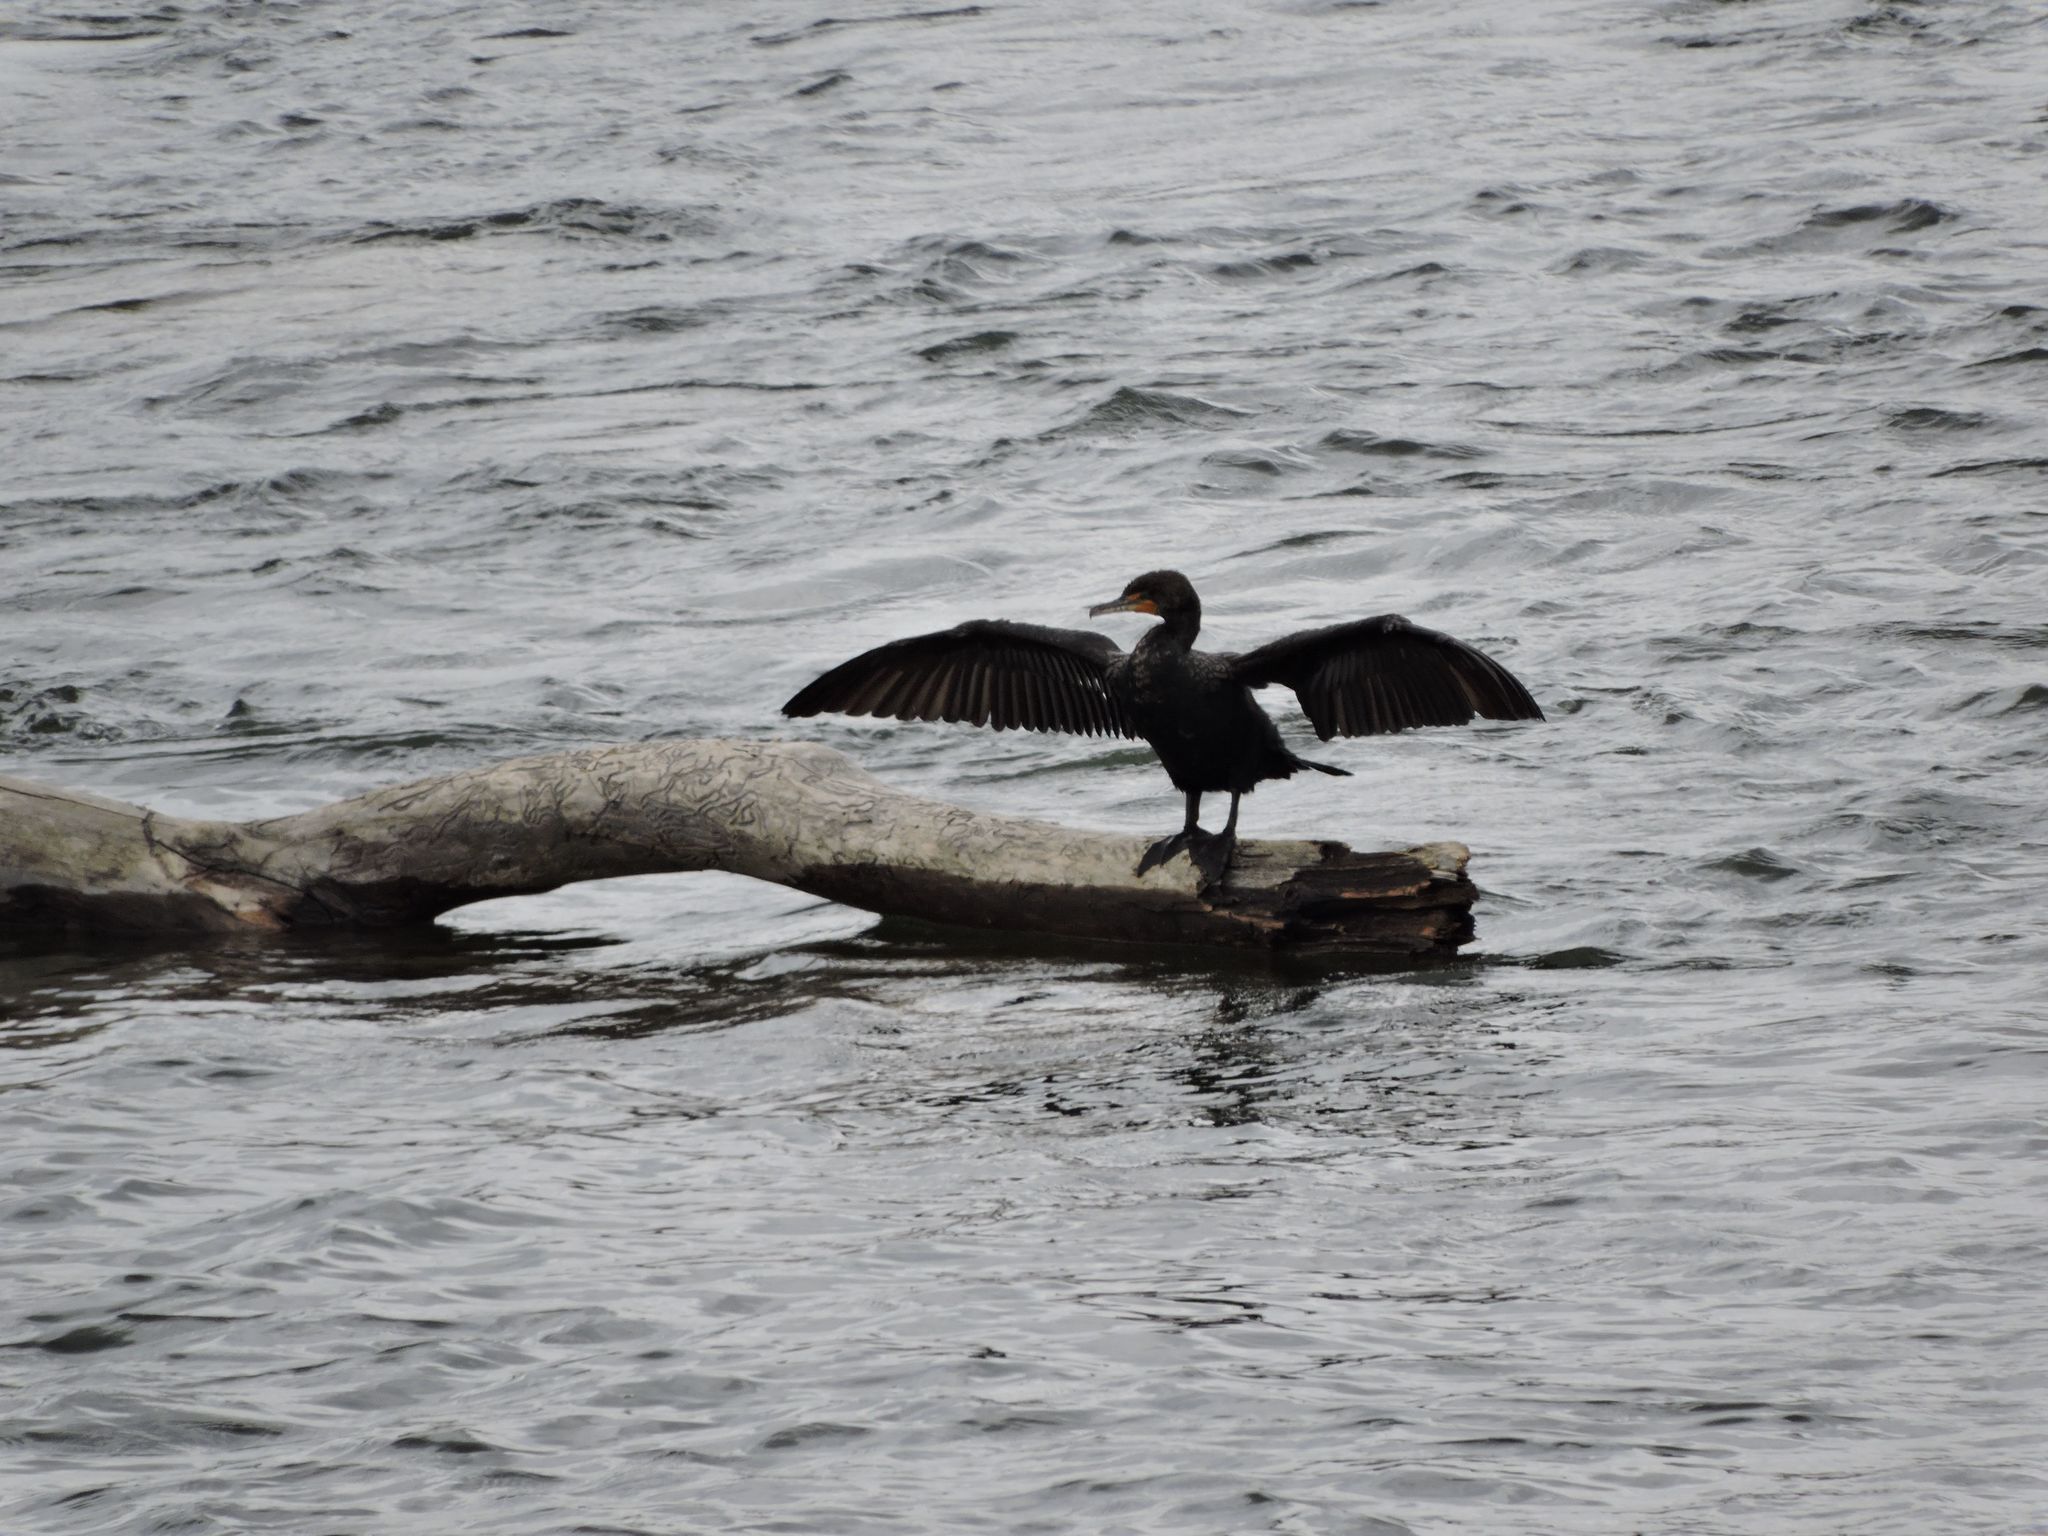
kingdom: Animalia
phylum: Chordata
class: Aves
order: Suliformes
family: Phalacrocoracidae
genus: Phalacrocorax
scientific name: Phalacrocorax auritus
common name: Double-crested cormorant
